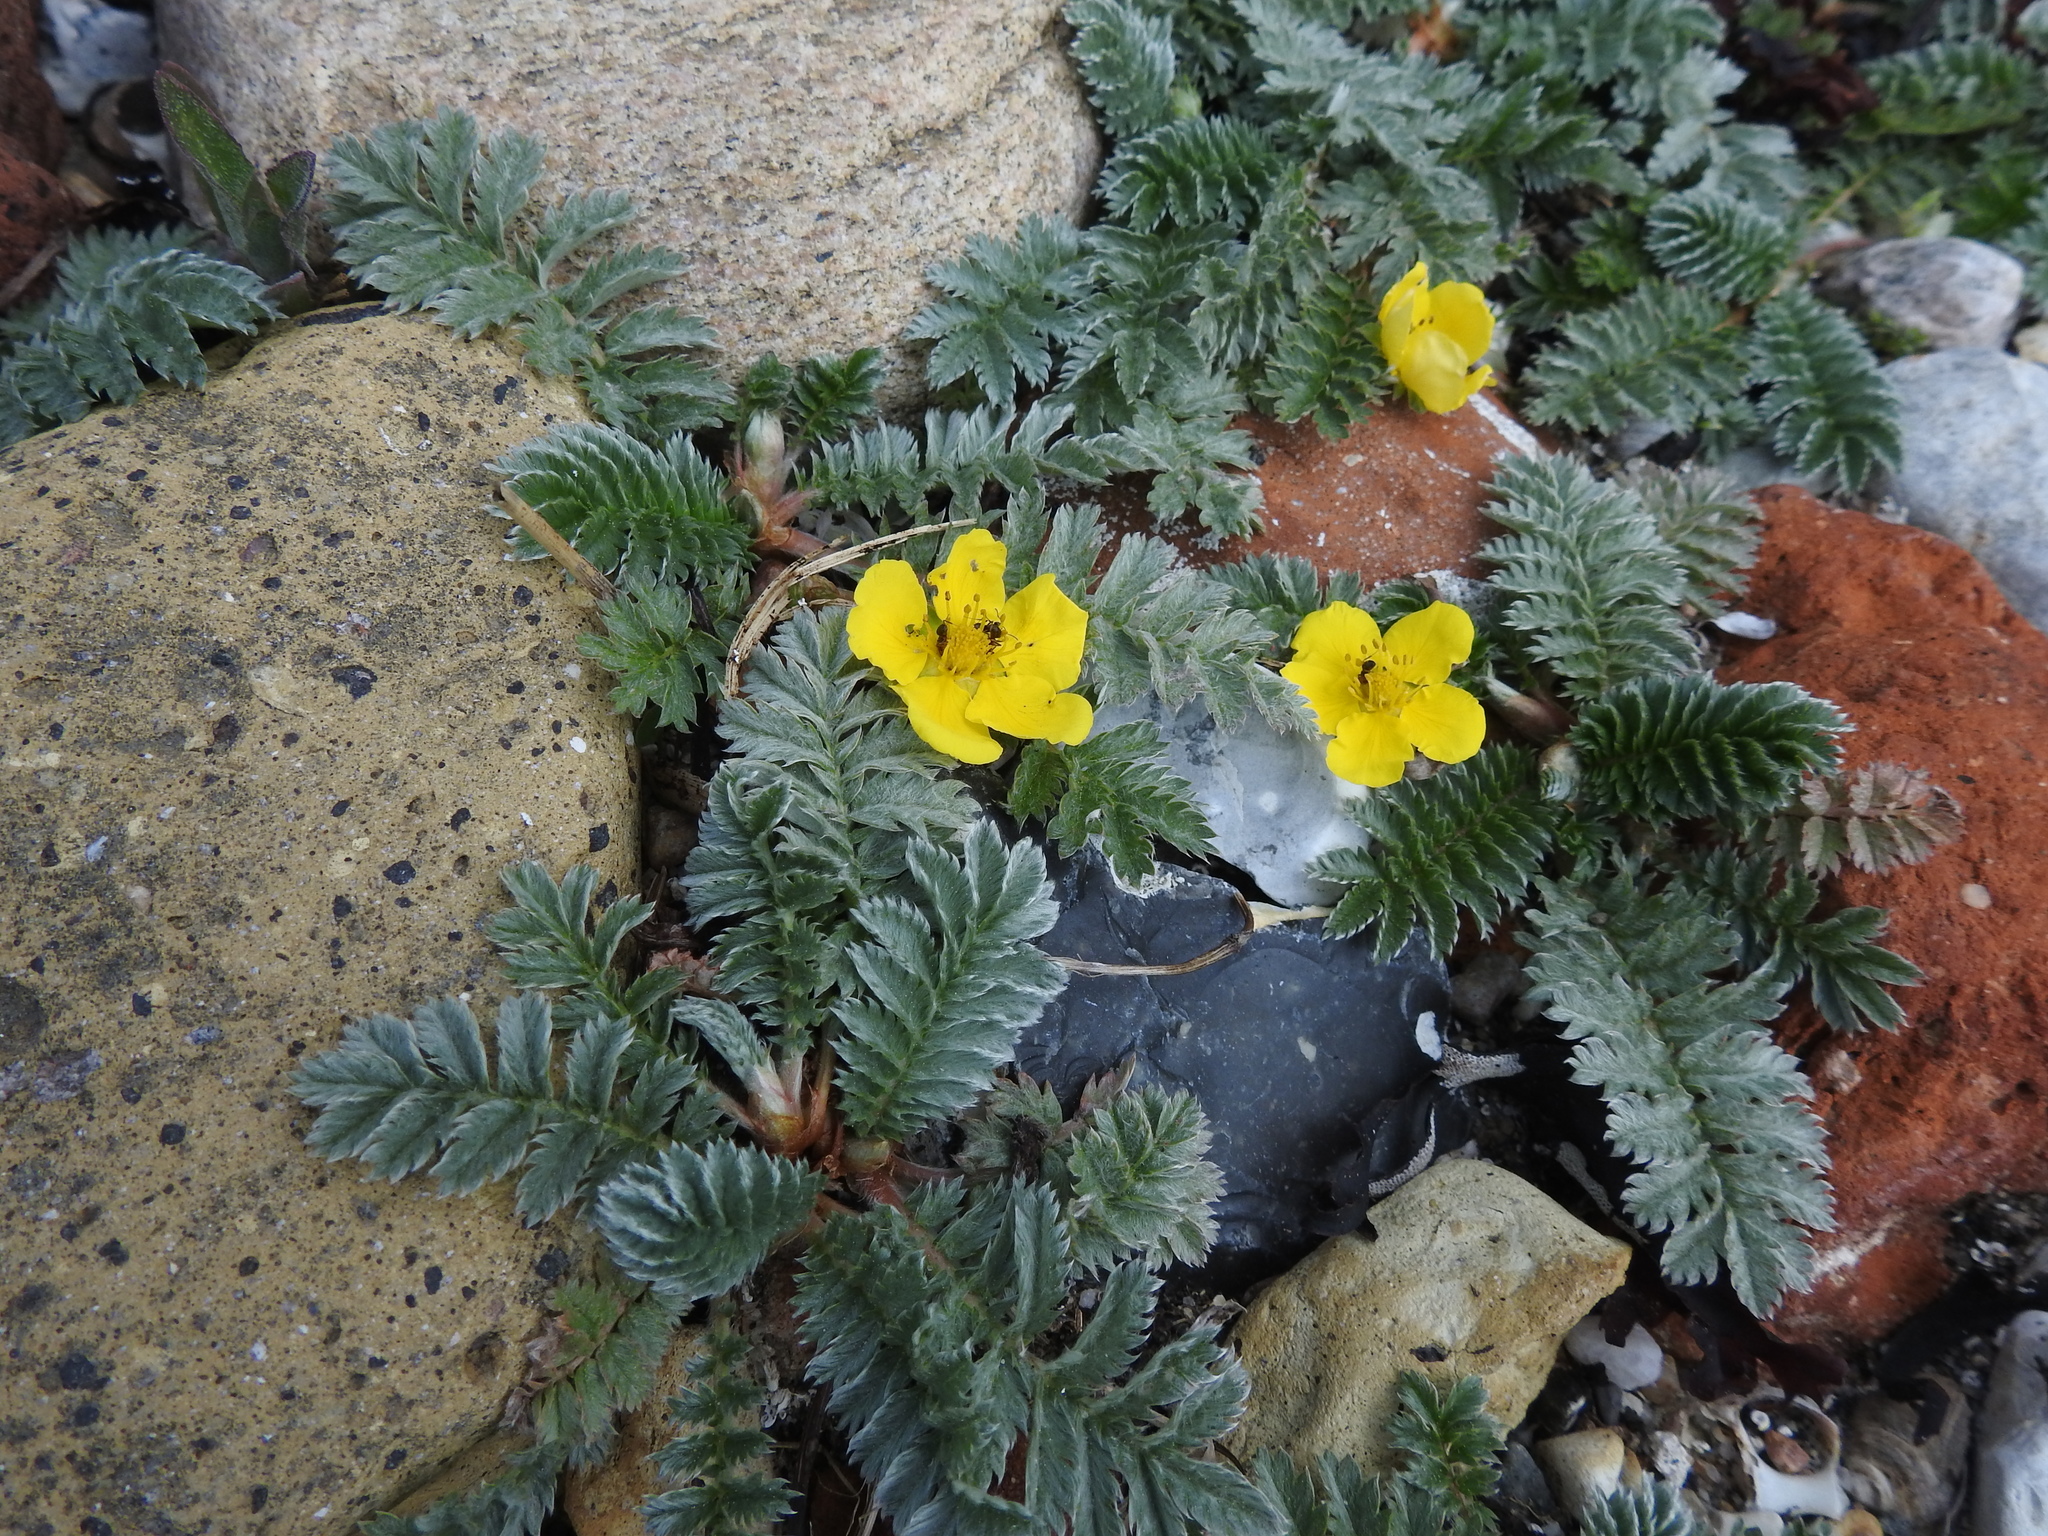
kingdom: Plantae
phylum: Tracheophyta
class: Magnoliopsida
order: Rosales
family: Rosaceae
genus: Argentina
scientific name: Argentina anserina
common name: Common silverweed
